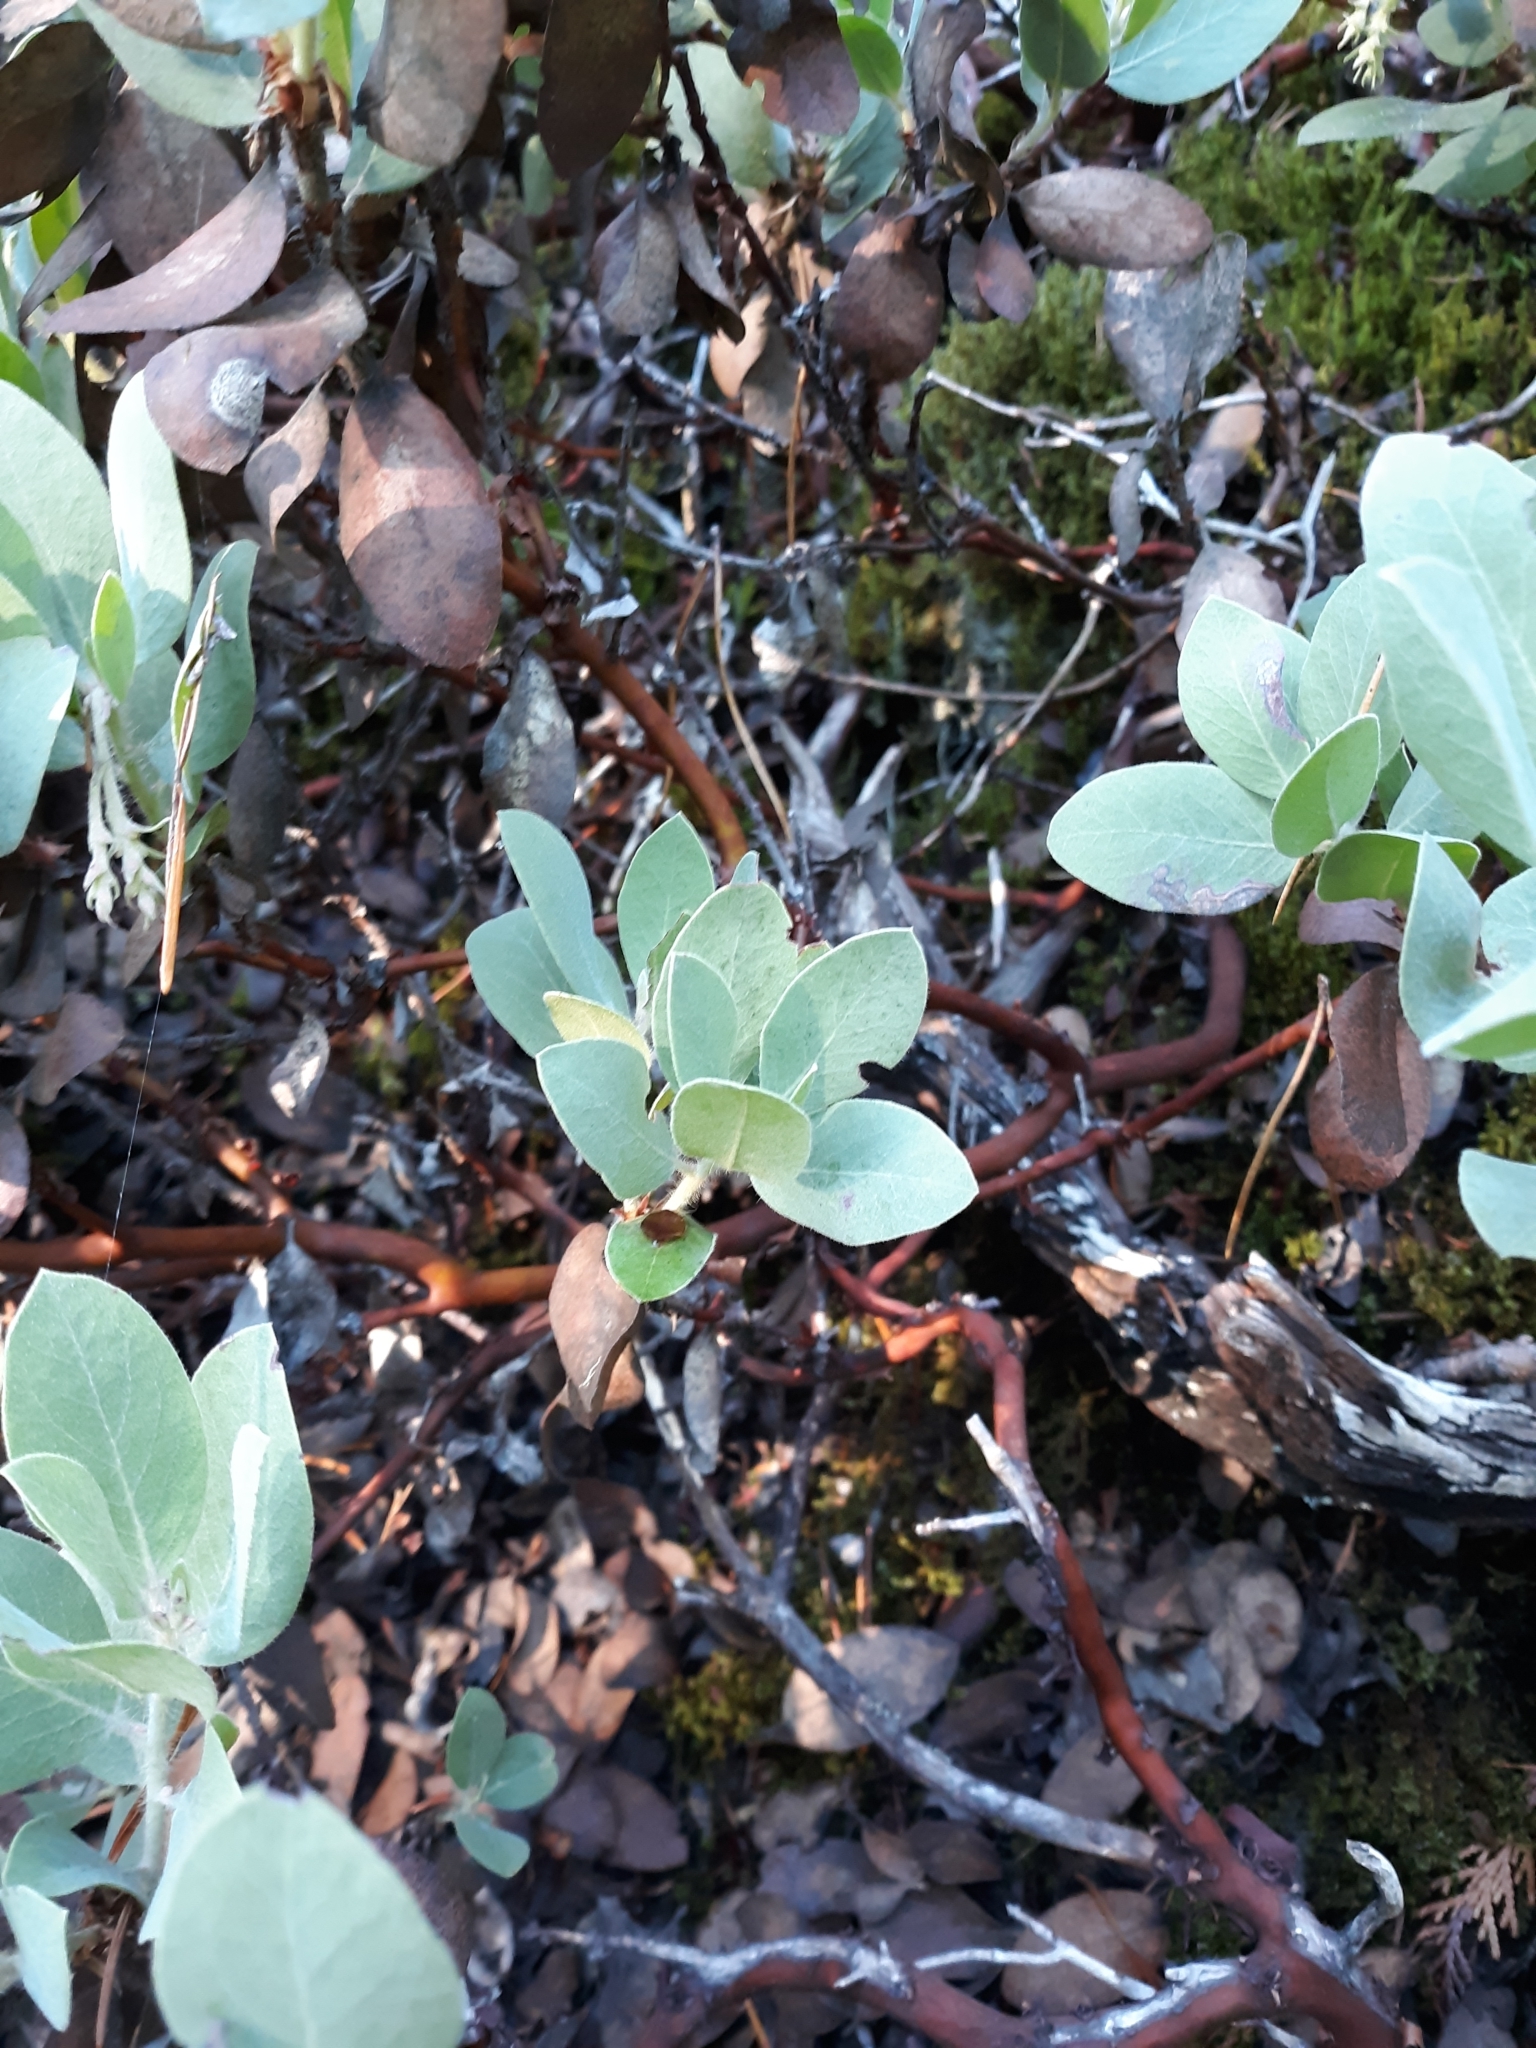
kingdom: Plantae
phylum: Tracheophyta
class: Magnoliopsida
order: Ericales
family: Ericaceae
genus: Arctostaphylos
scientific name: Arctostaphylos columbiana
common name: Bristly bearberry
